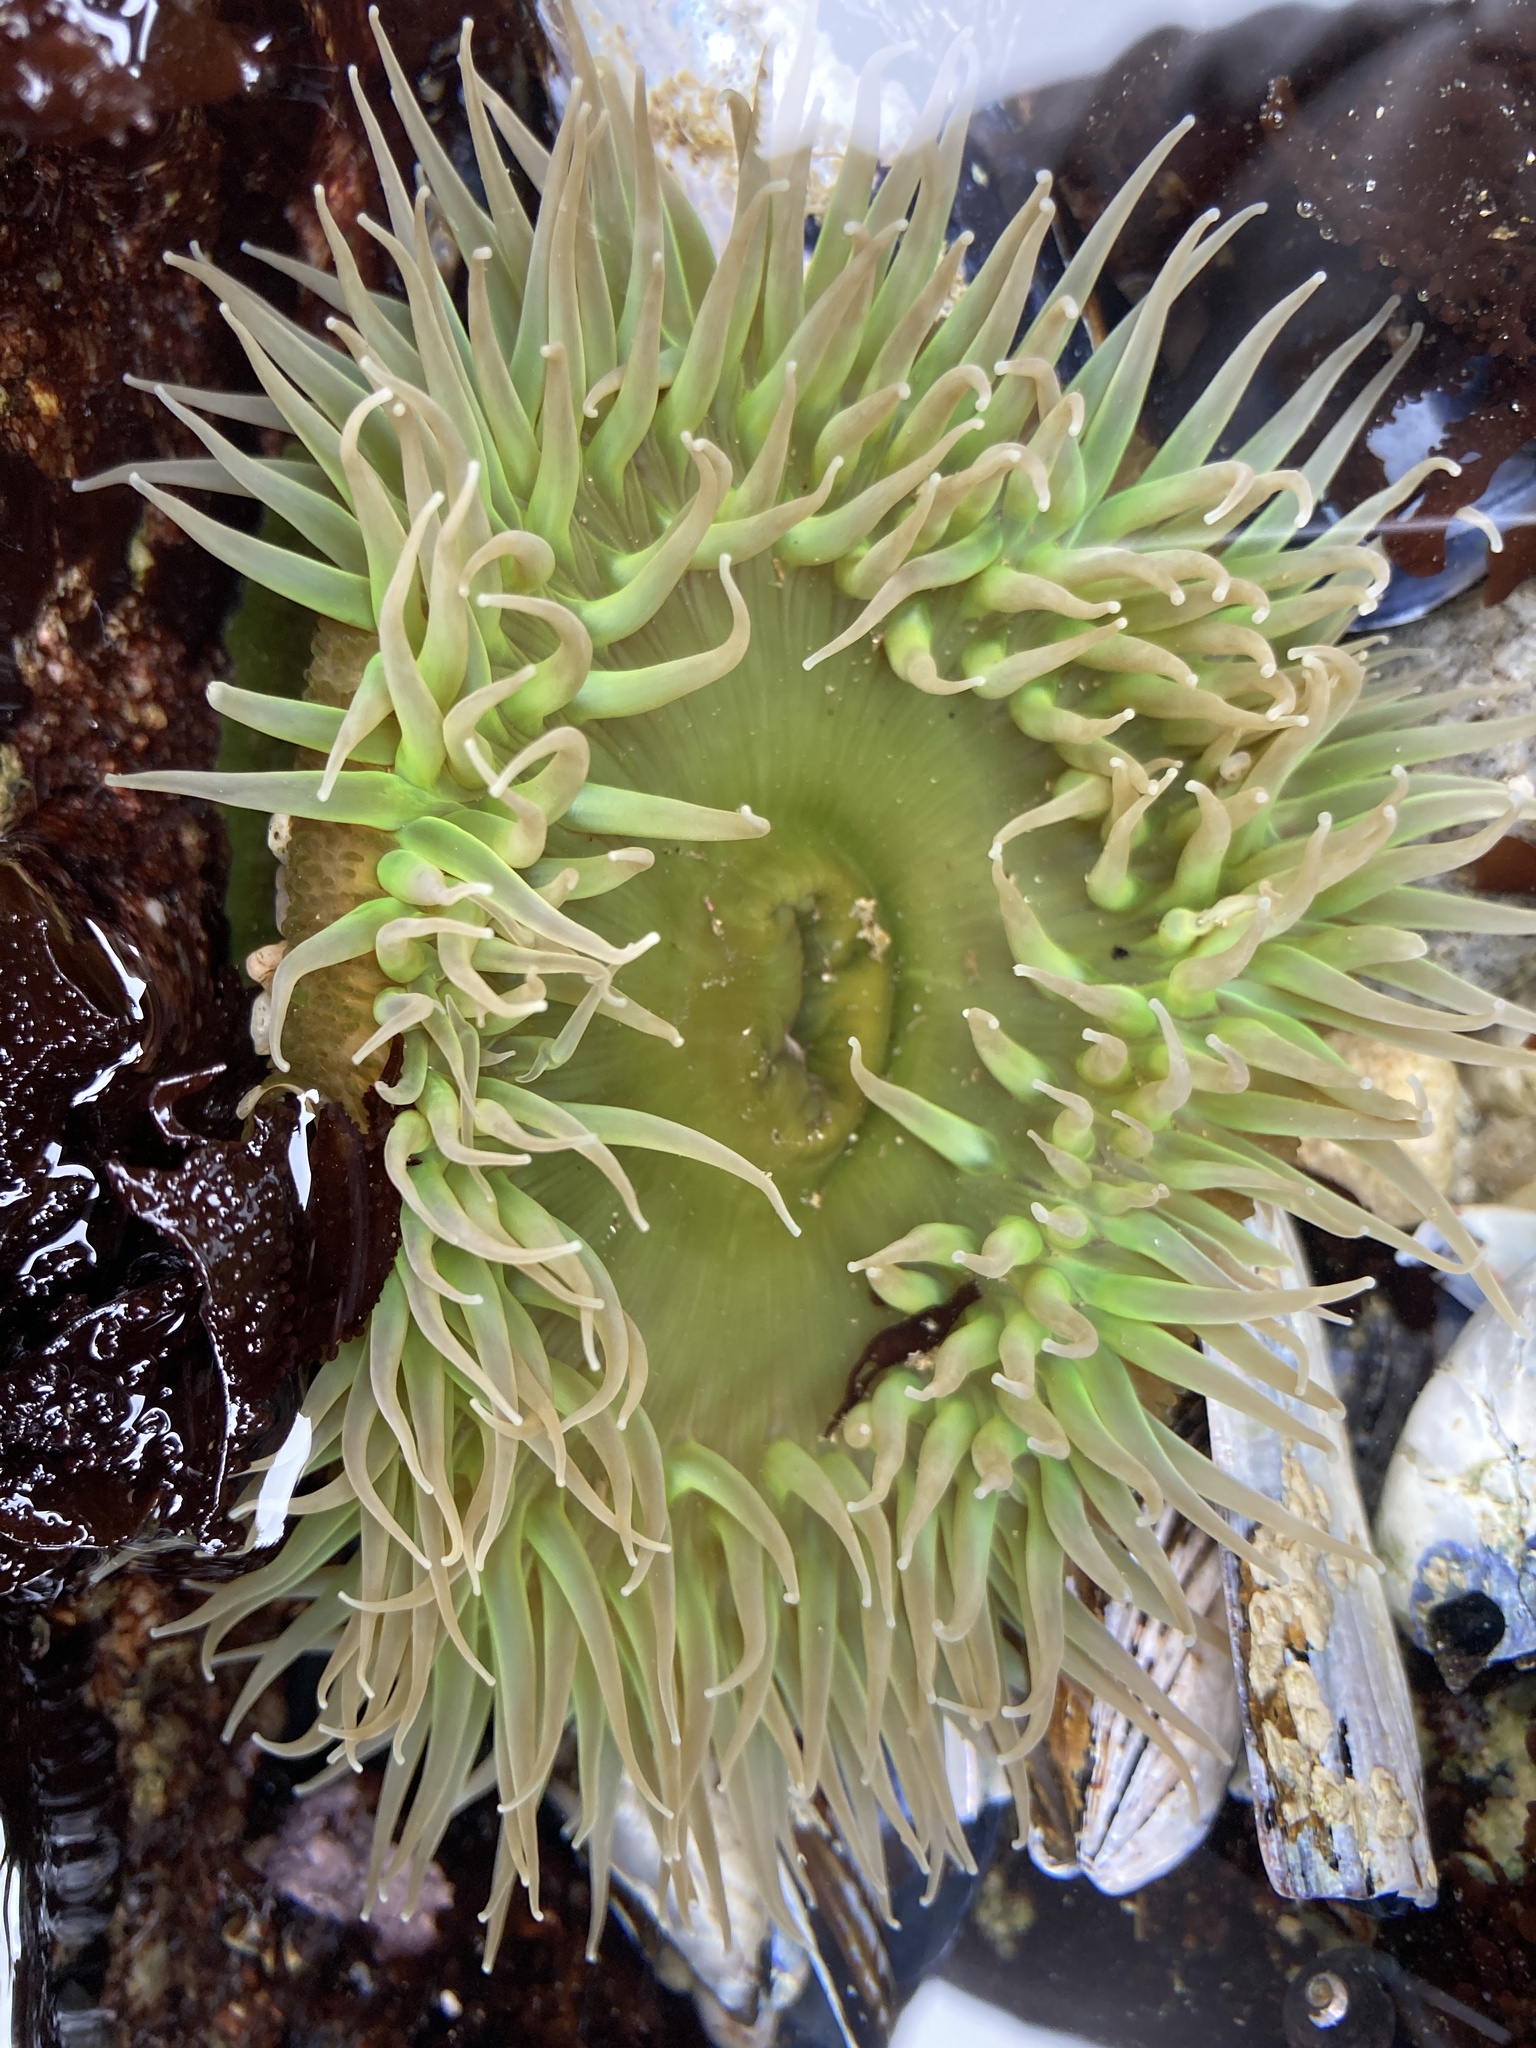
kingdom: Animalia
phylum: Cnidaria
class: Anthozoa
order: Actiniaria
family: Actiniidae
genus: Anthopleura
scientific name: Anthopleura xanthogrammica
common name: Giant green anemone
